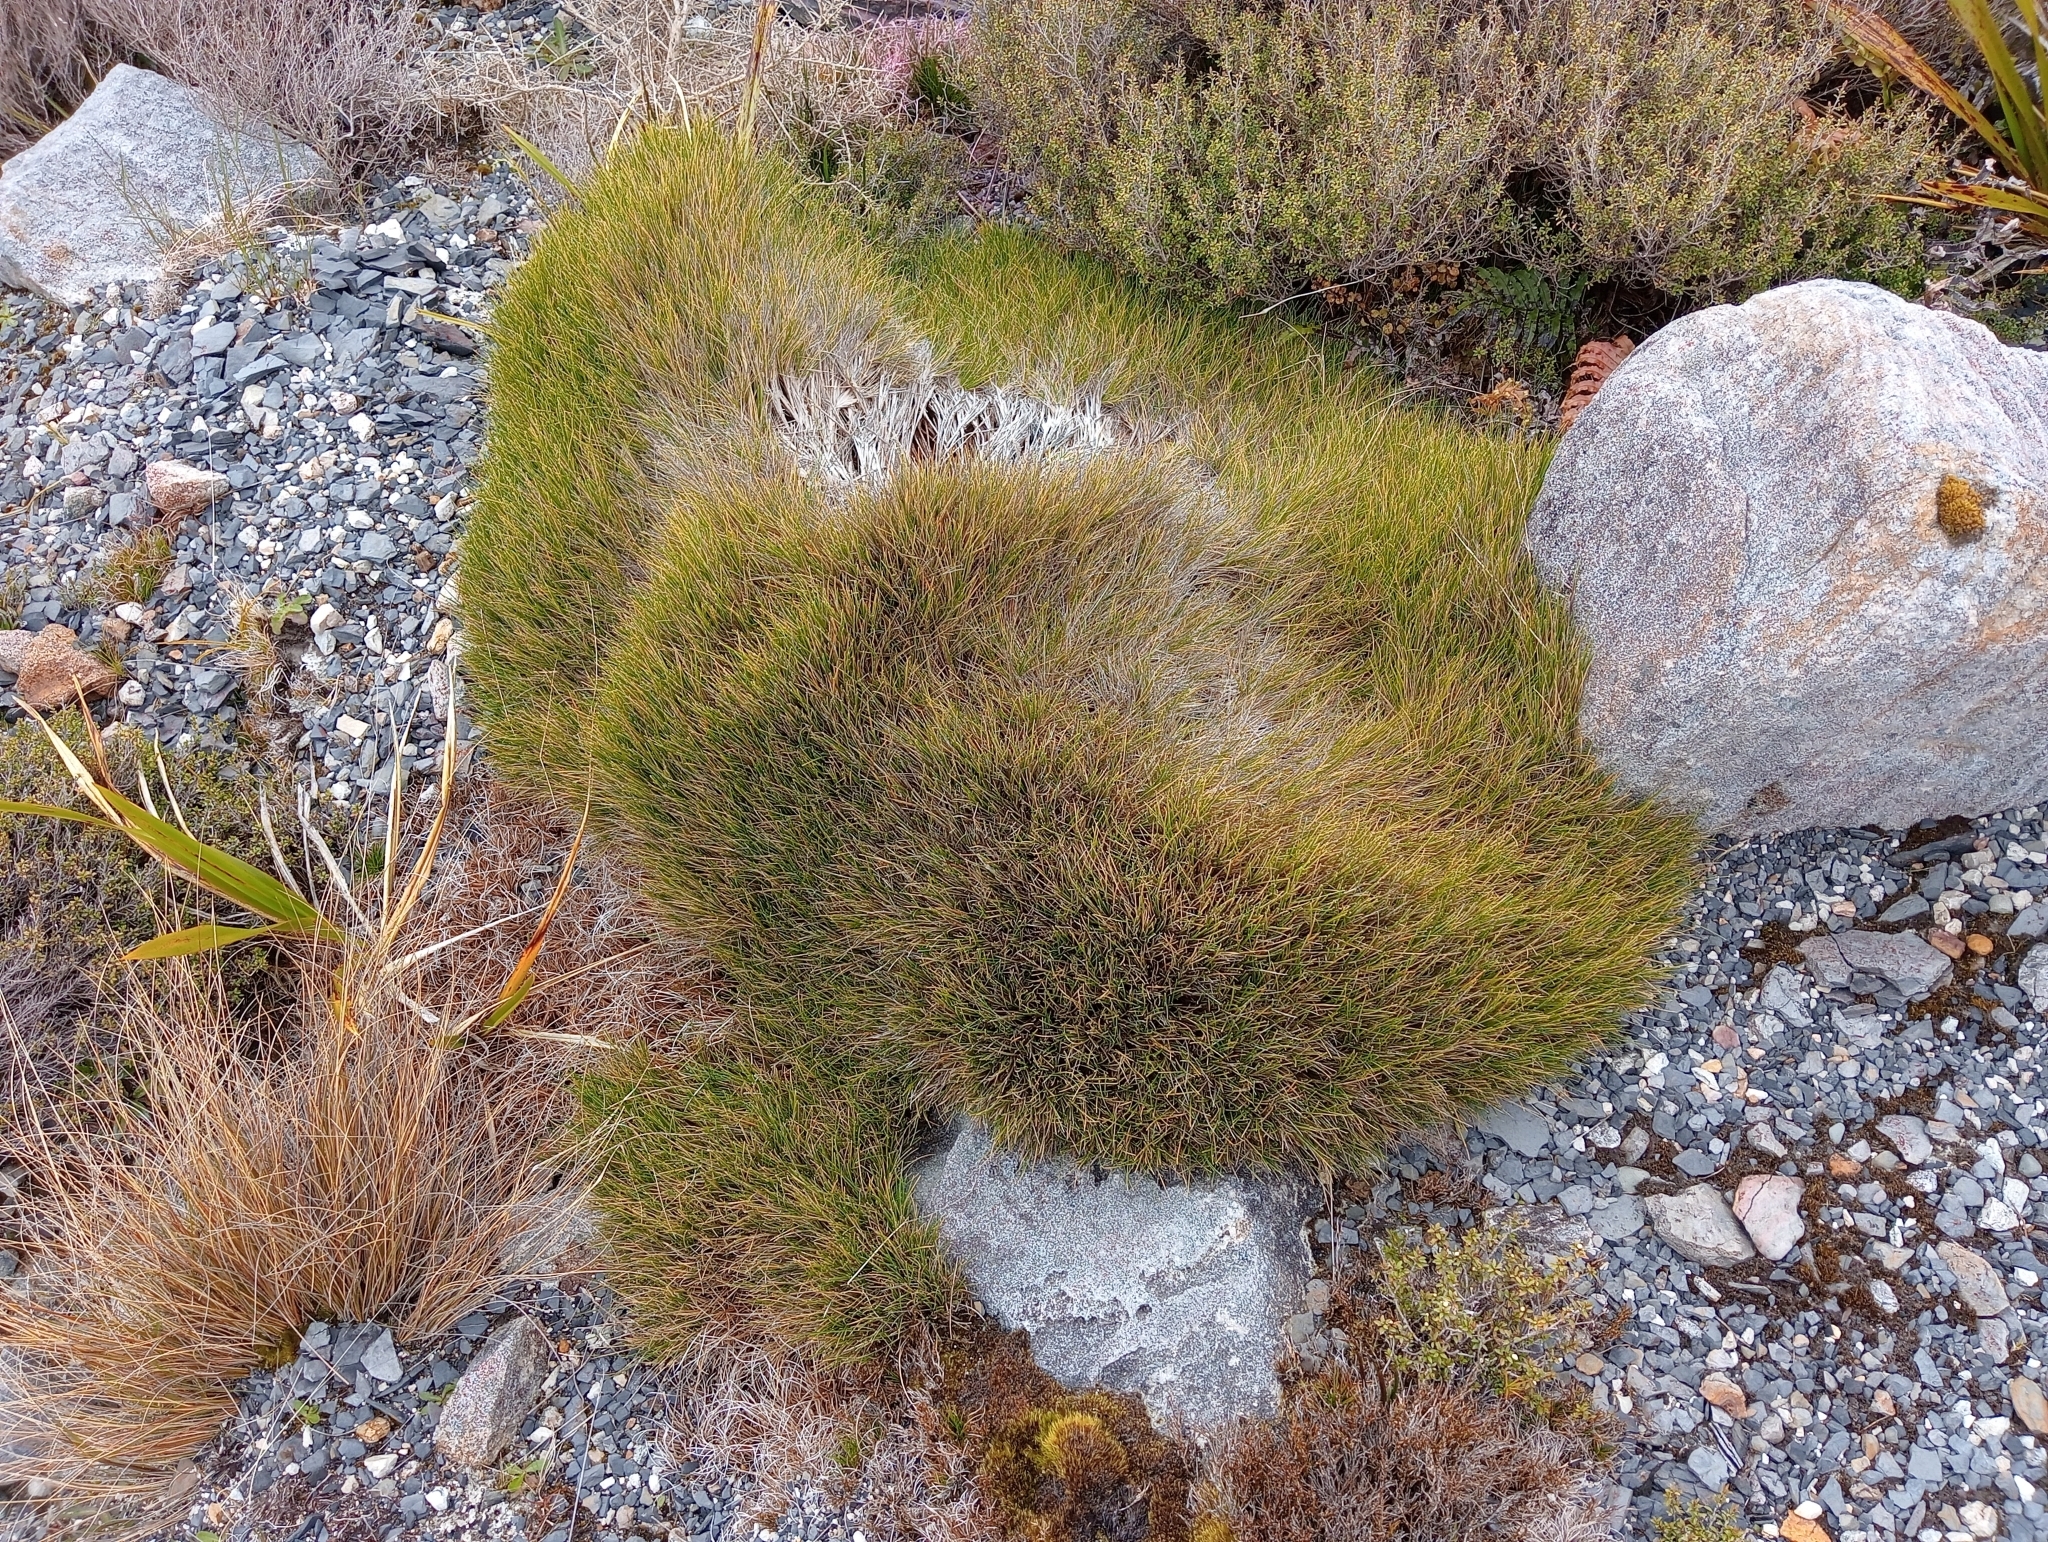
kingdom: Plantae
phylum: Tracheophyta
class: Liliopsida
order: Poales
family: Poaceae
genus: Chionochloa
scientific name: Chionochloa australis
